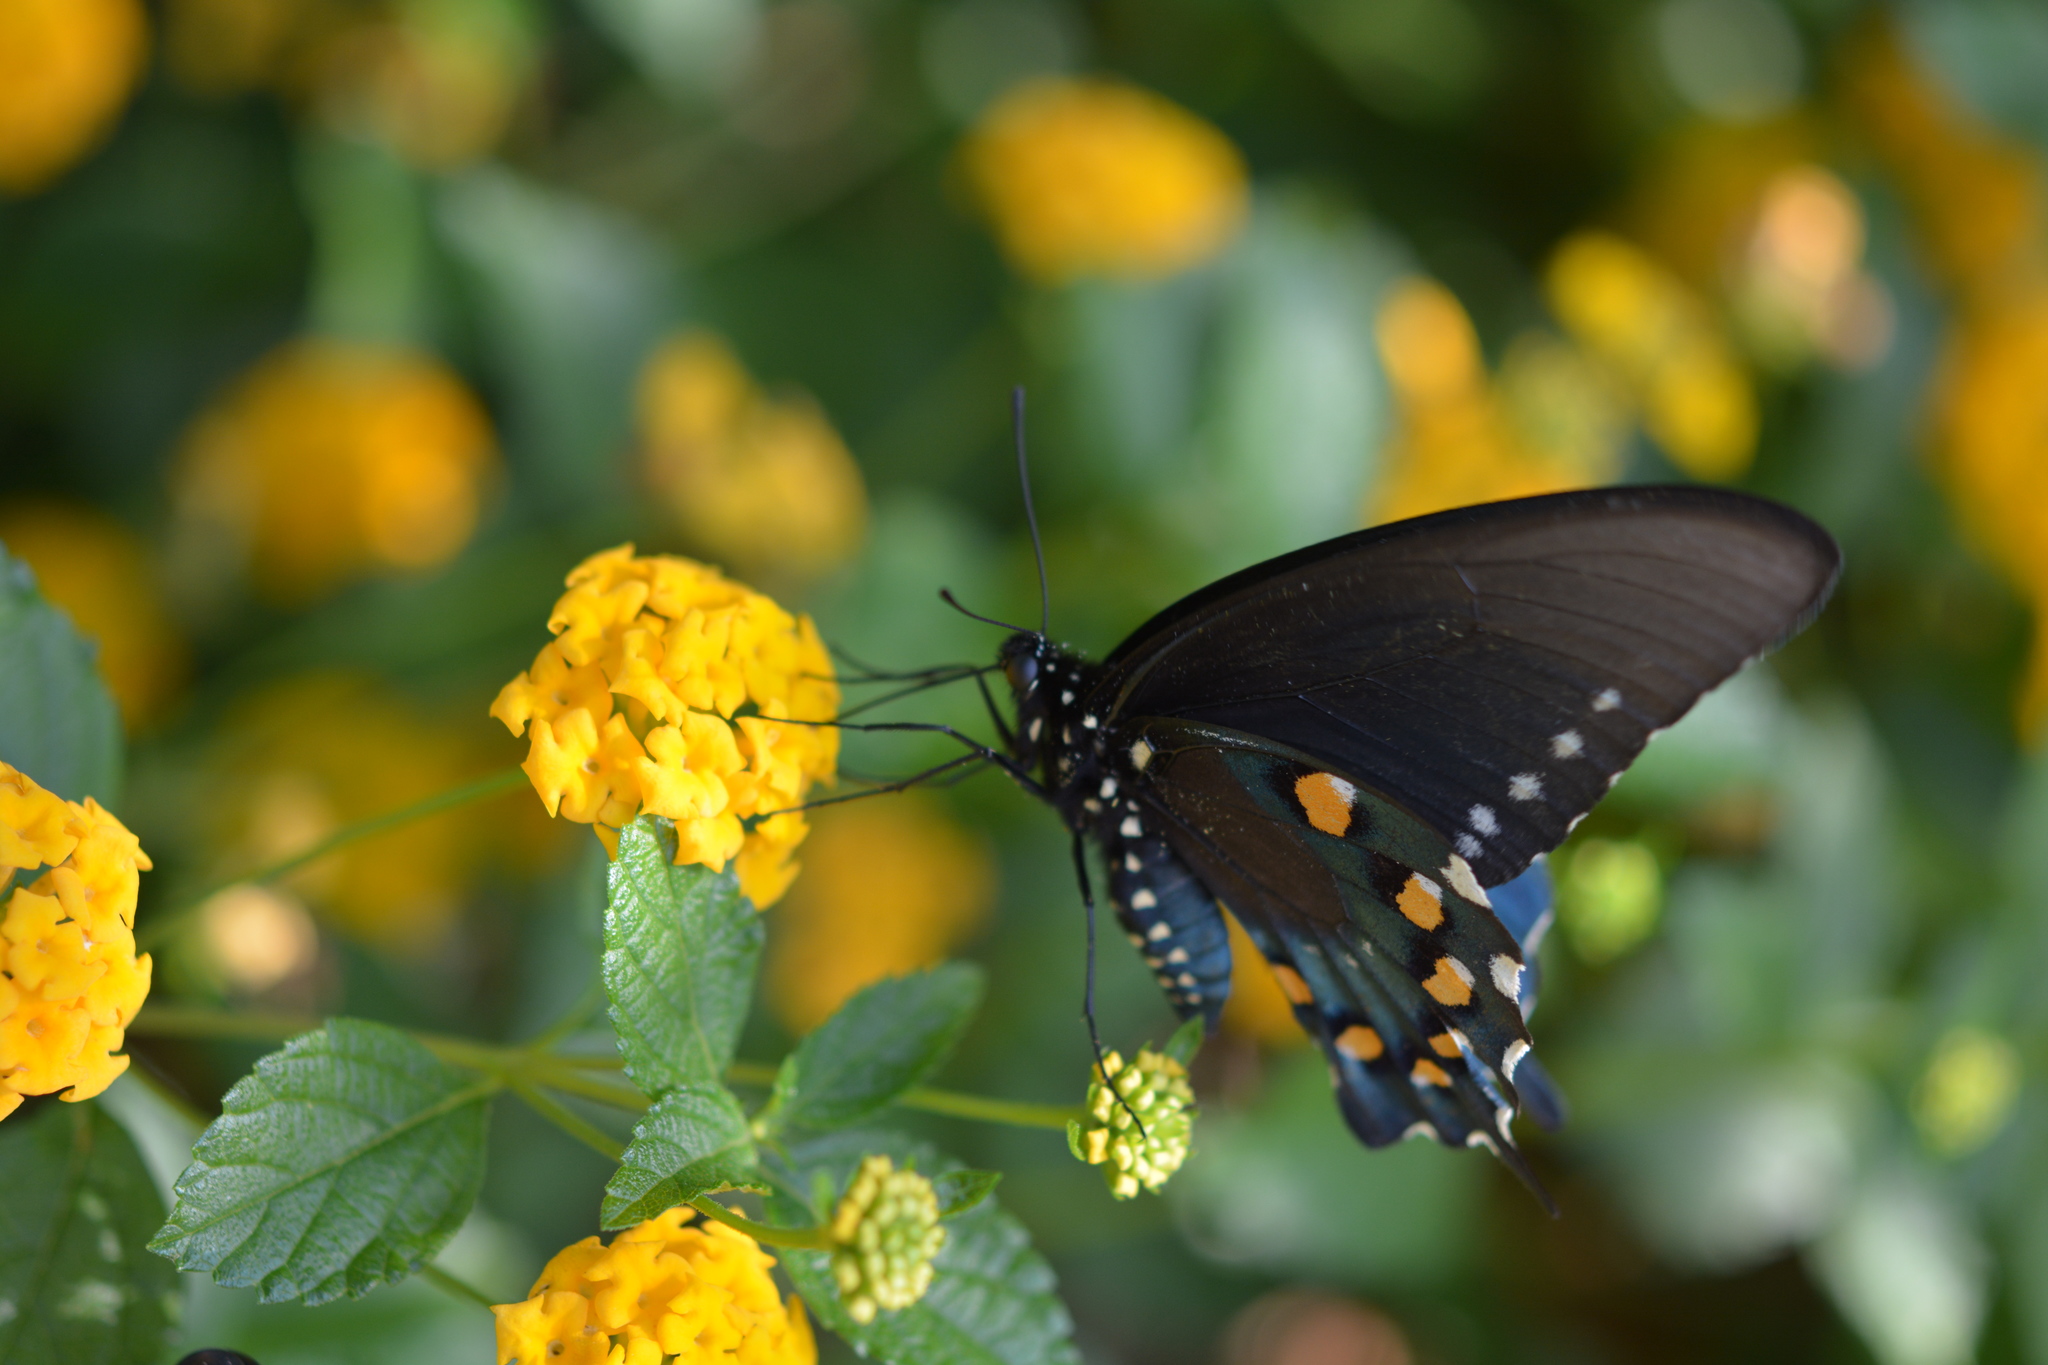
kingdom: Animalia
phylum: Arthropoda
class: Insecta
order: Lepidoptera
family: Papilionidae
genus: Battus
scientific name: Battus philenor
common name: Pipevine swallowtail
